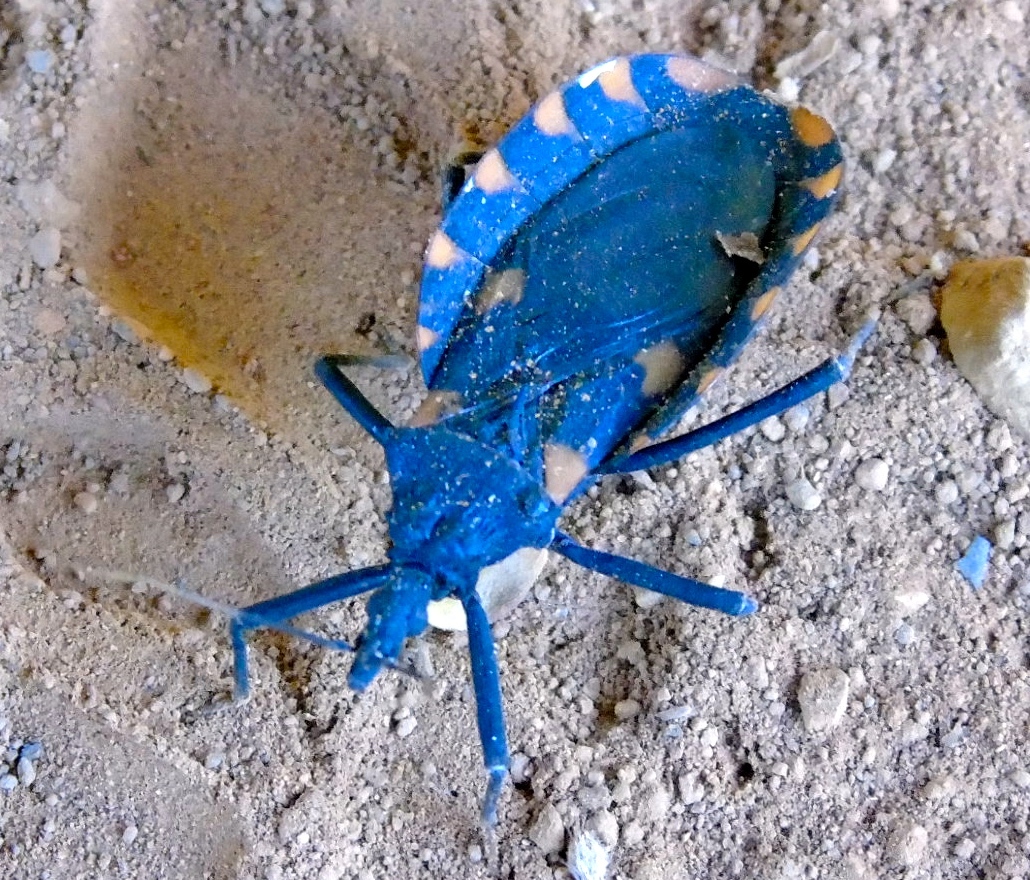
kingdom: Animalia
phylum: Arthropoda
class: Insecta
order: Hemiptera
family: Reduviidae
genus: Meccus
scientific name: Meccus longipennis
